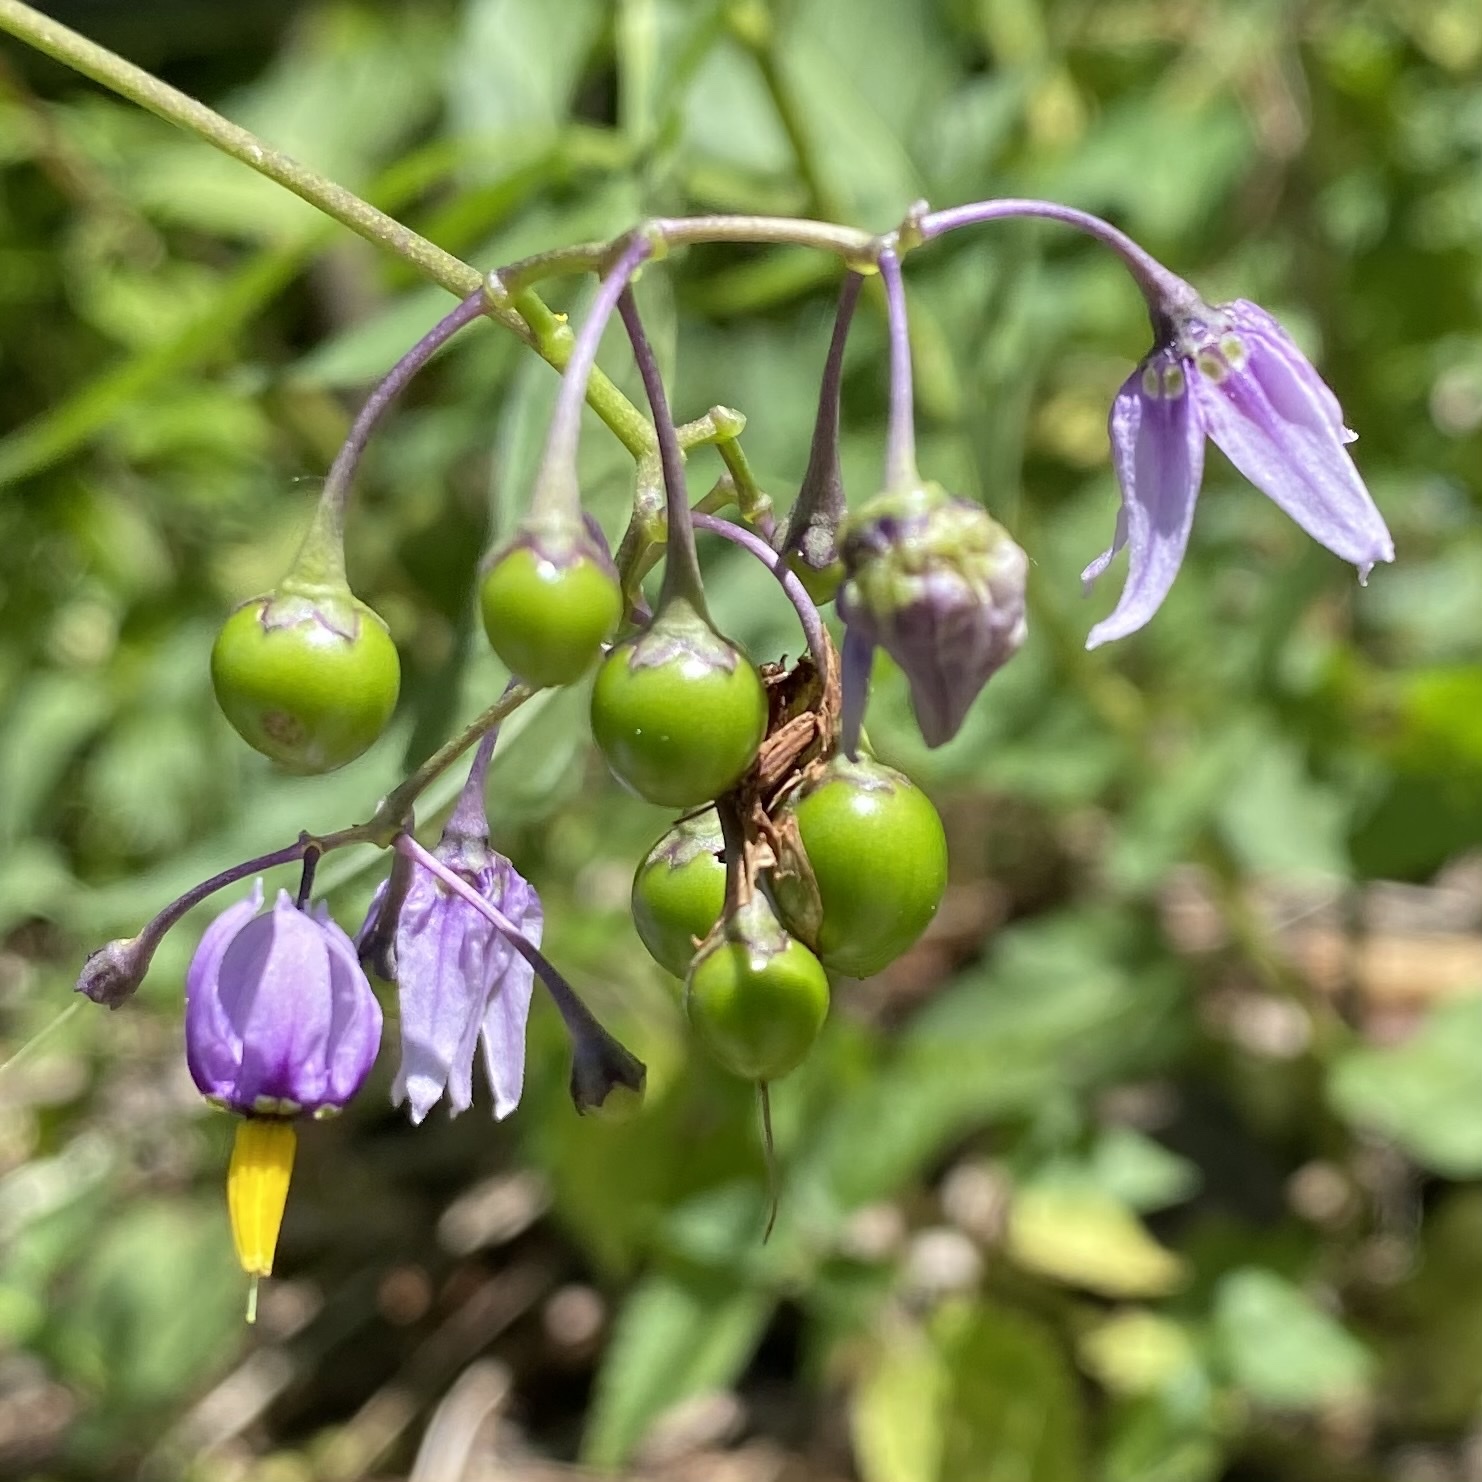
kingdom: Plantae
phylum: Tracheophyta
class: Magnoliopsida
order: Solanales
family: Solanaceae
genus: Solanum
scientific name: Solanum dulcamara
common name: Climbing nightshade
